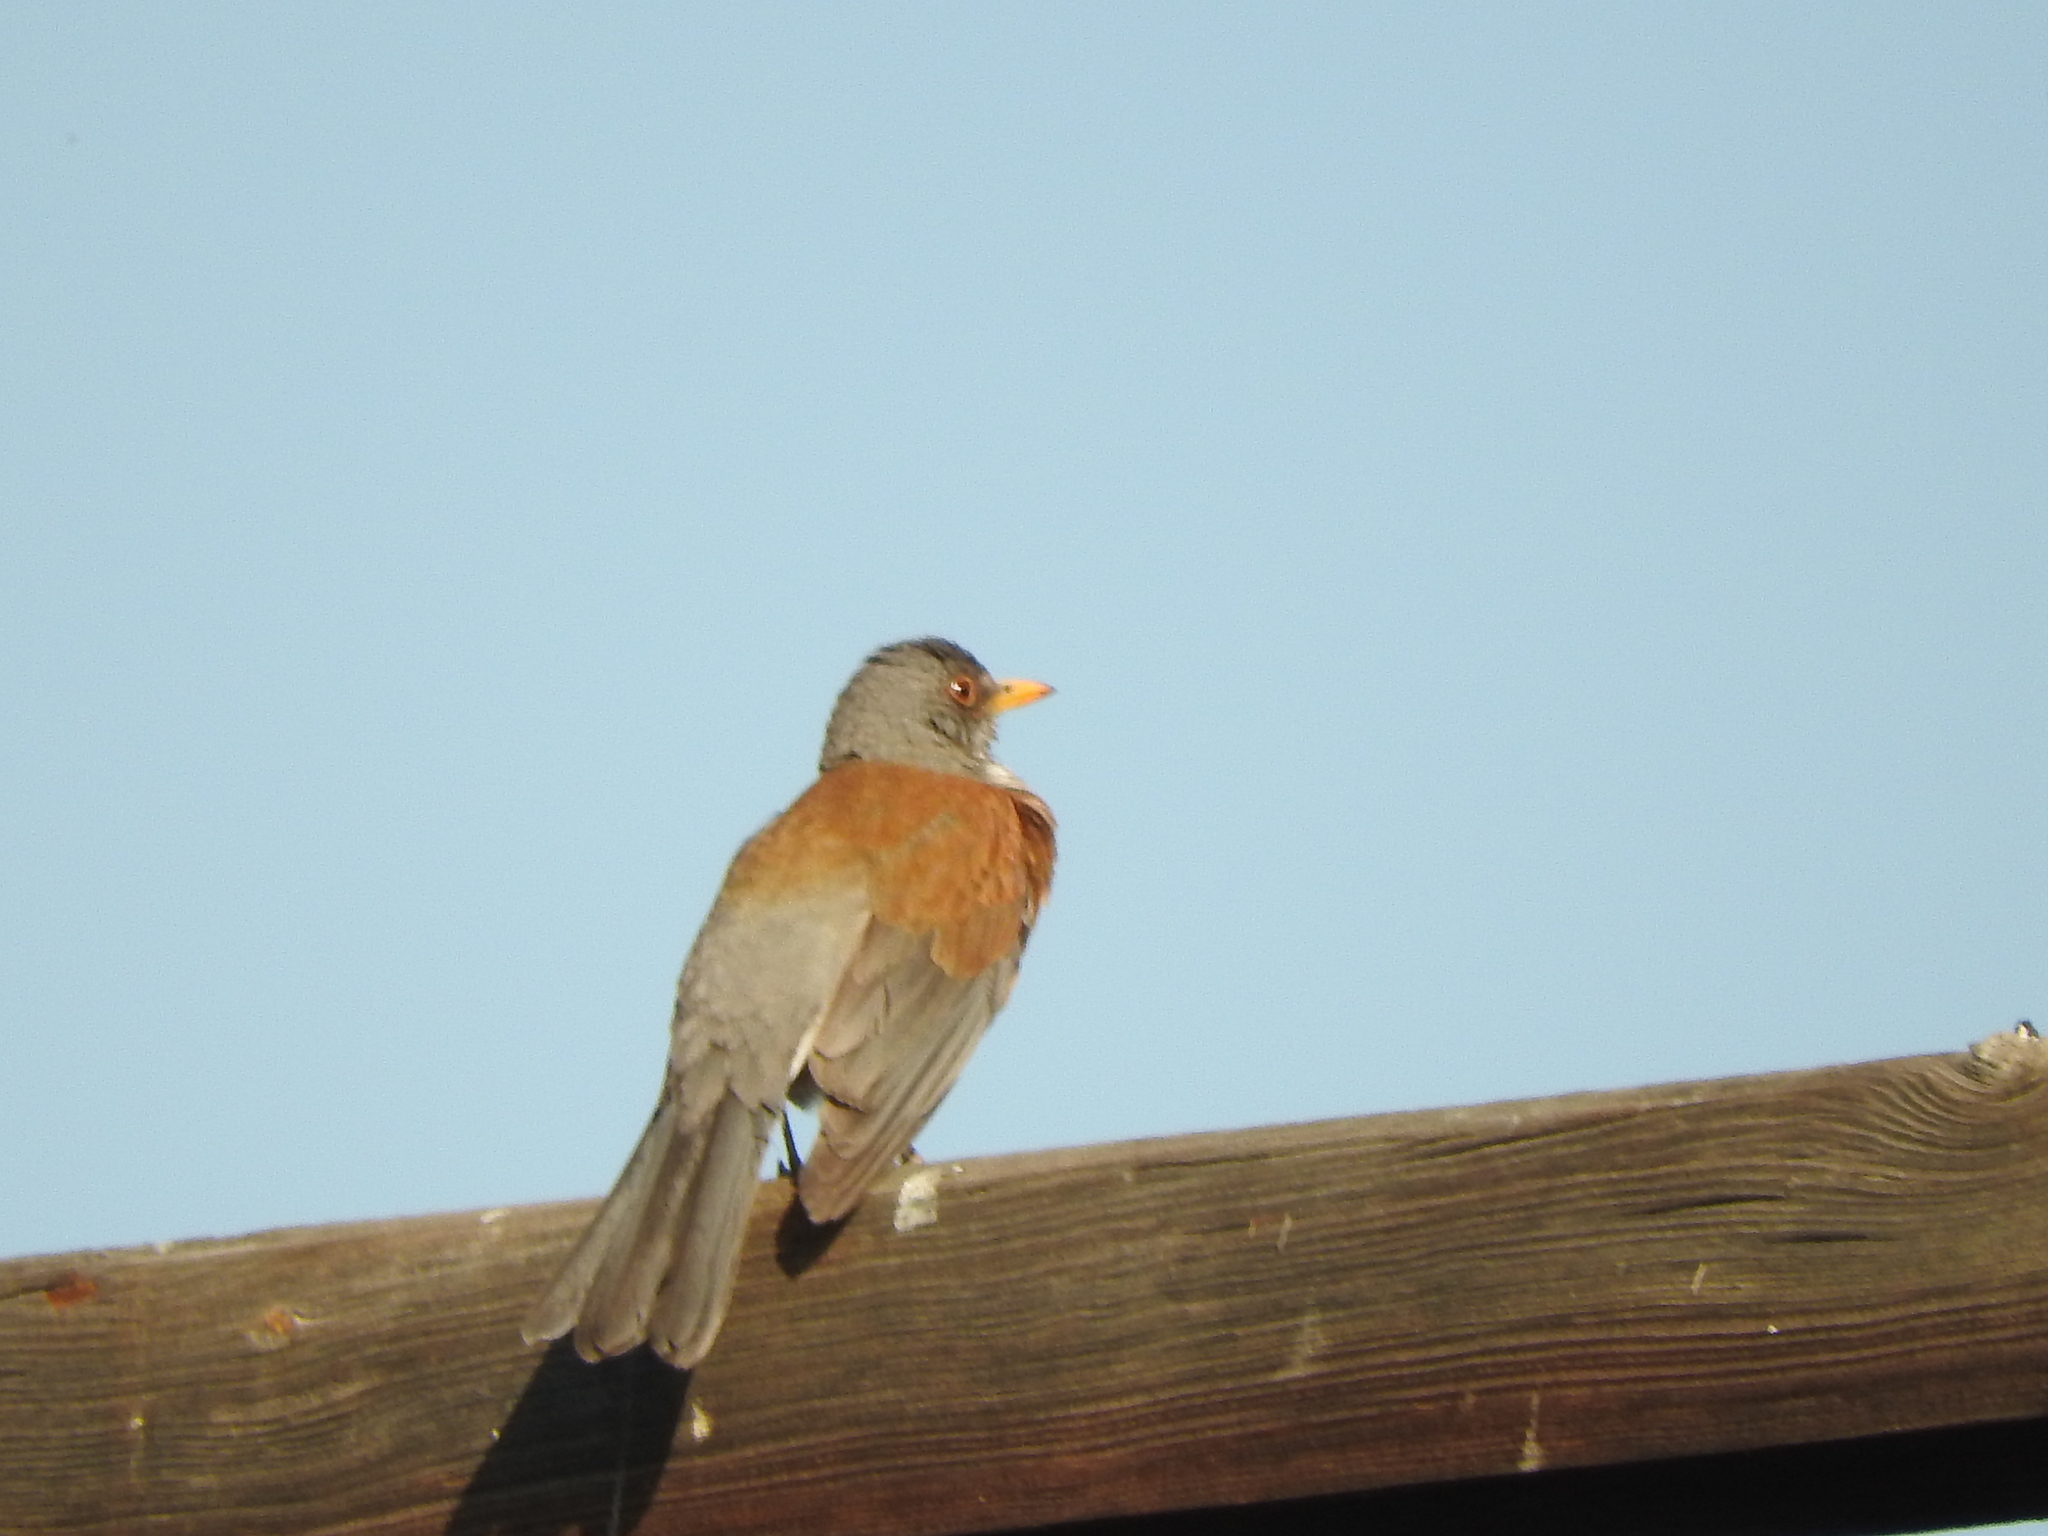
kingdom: Animalia
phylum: Chordata
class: Aves
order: Passeriformes
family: Turdidae
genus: Turdus
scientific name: Turdus rufopalliatus
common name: Rufous-backed robin
